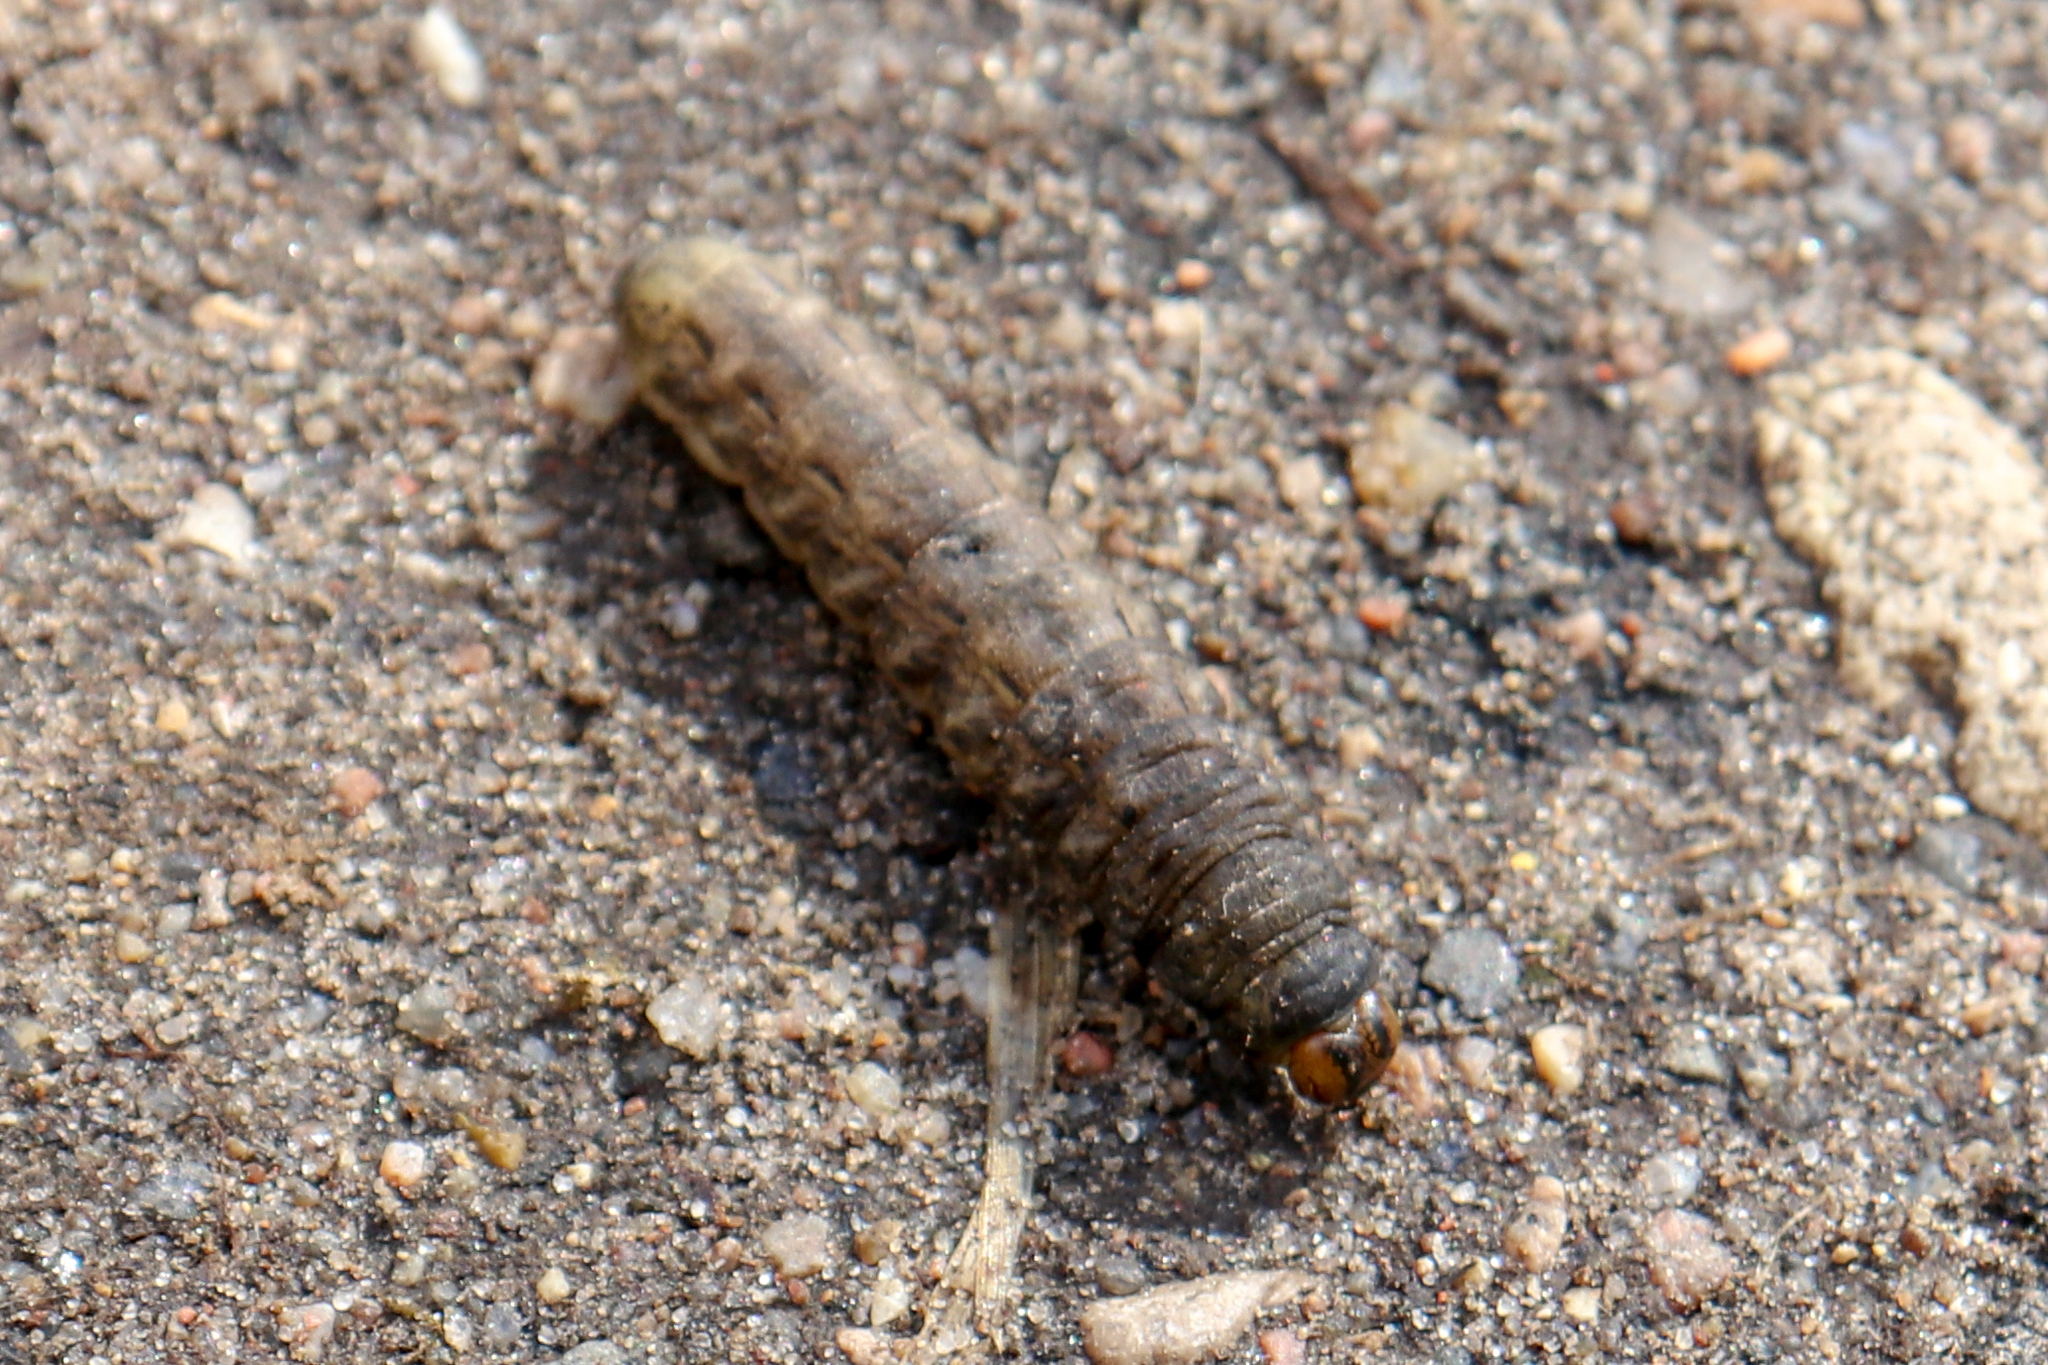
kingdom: Animalia
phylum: Arthropoda
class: Insecta
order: Lepidoptera
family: Noctuidae
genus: Noctua
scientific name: Noctua pronuba
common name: Large yellow underwing
